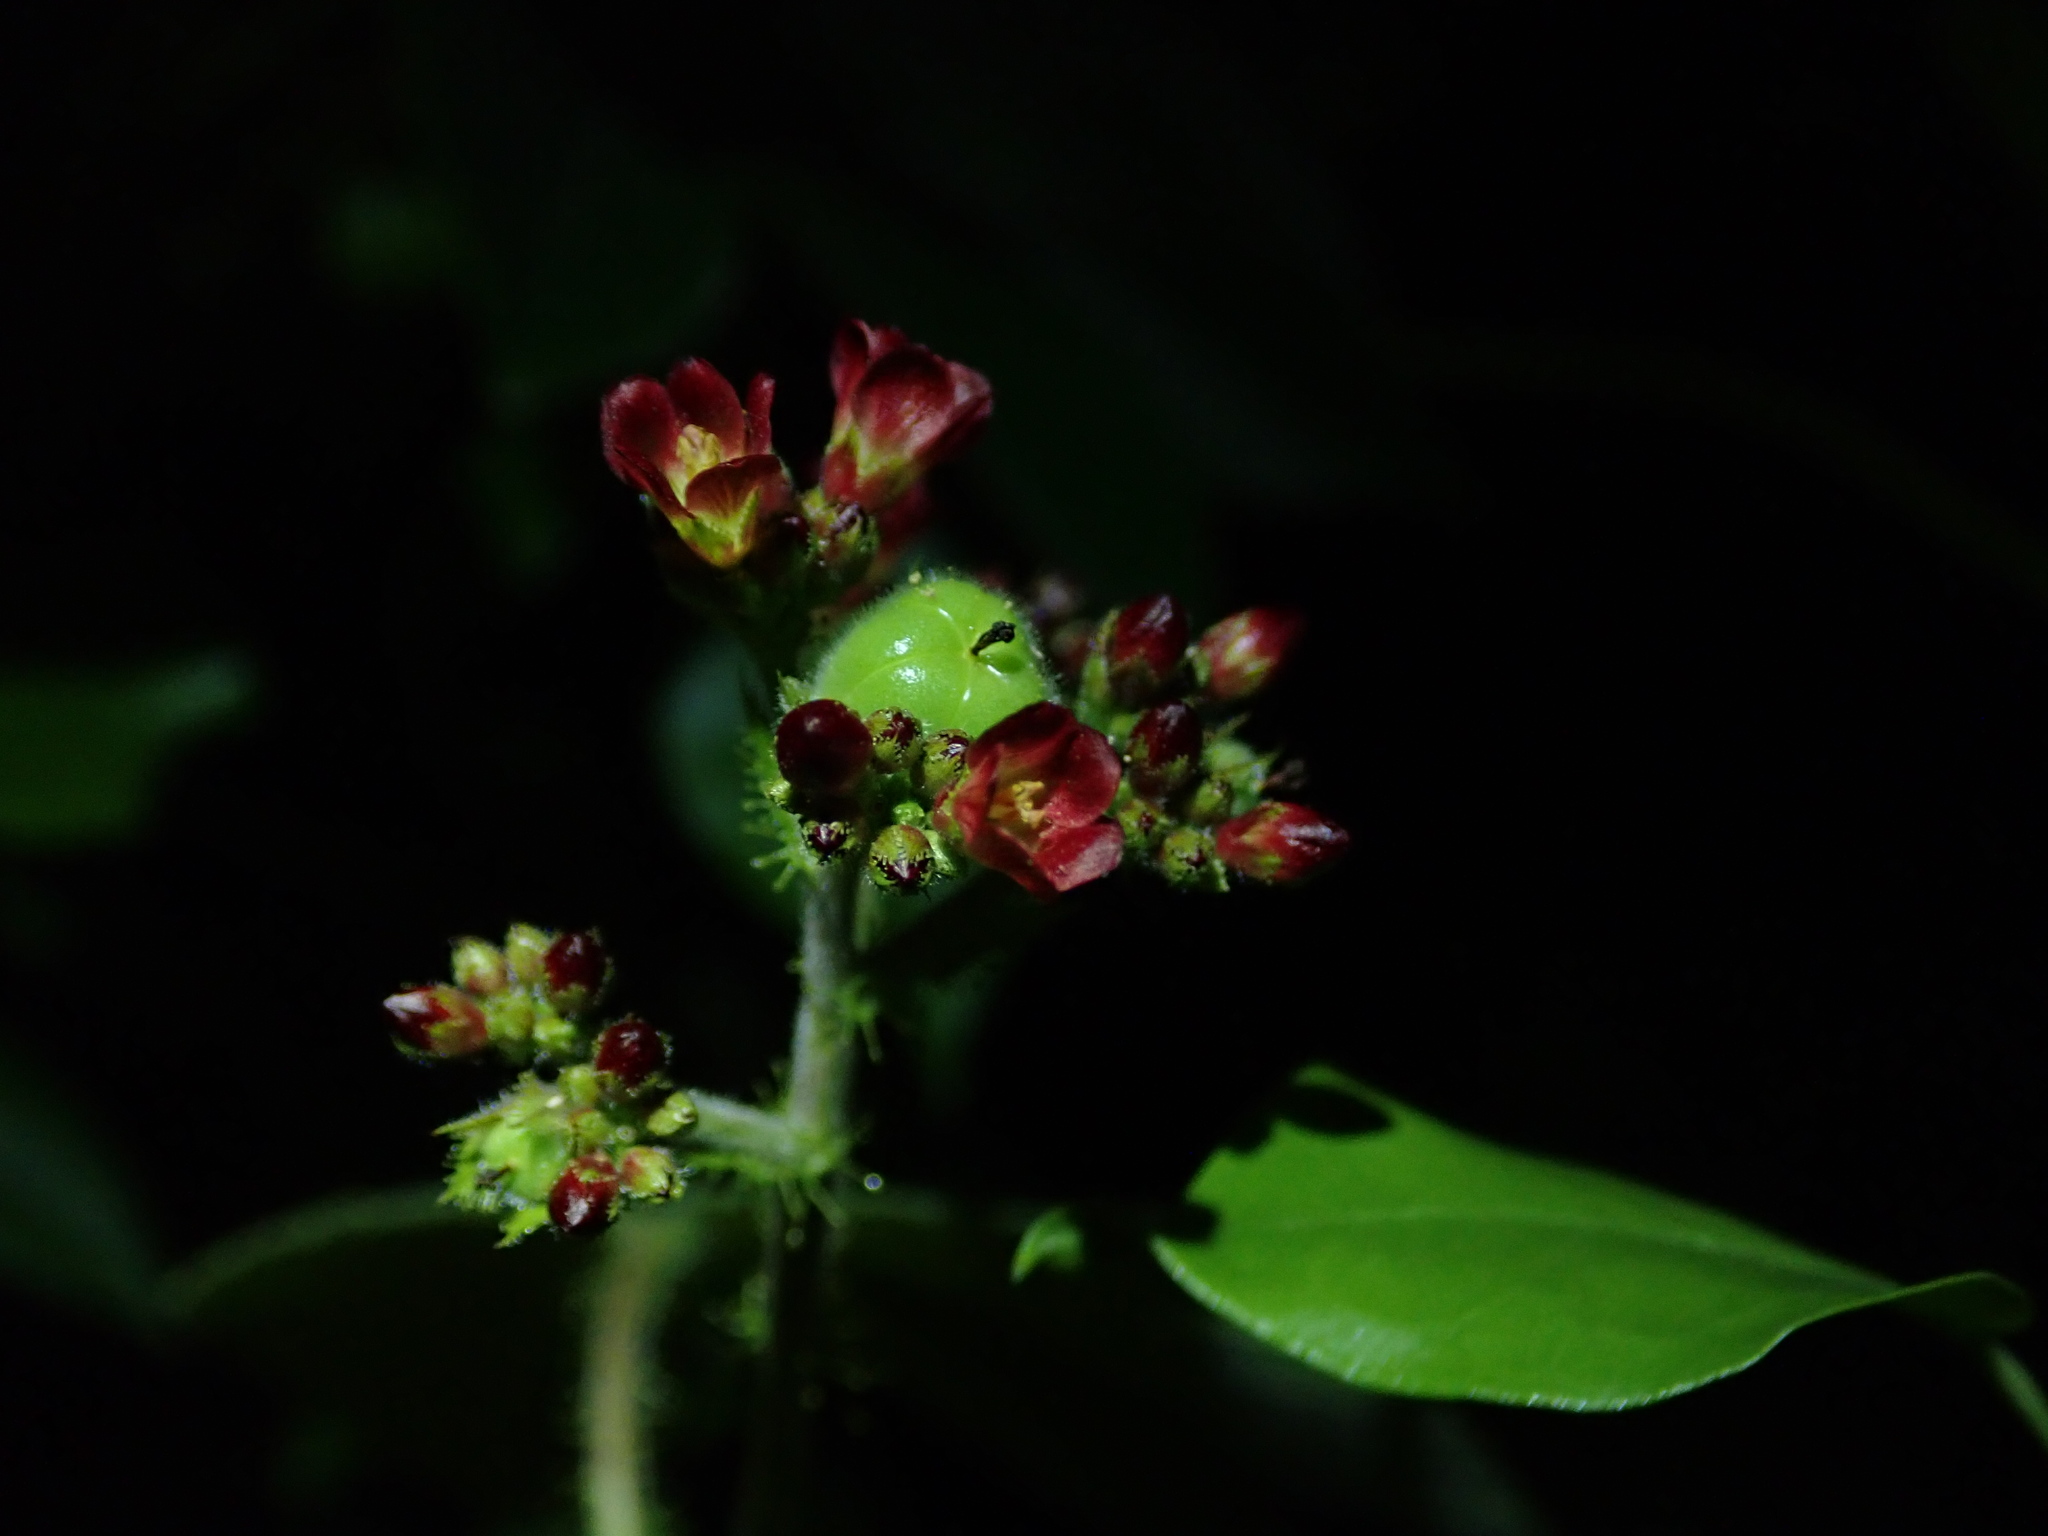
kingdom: Plantae
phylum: Tracheophyta
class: Magnoliopsida
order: Malpighiales
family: Euphorbiaceae
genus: Jatropha
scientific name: Jatropha gossypiifolia
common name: Bellyache bush
